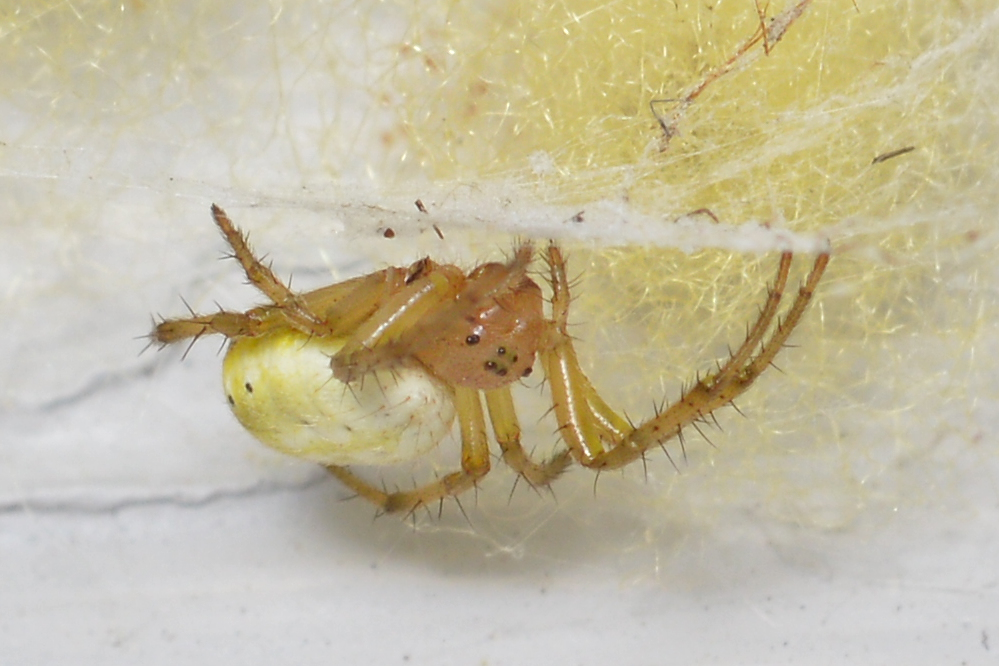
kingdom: Animalia
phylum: Arthropoda
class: Arachnida
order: Araneae
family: Araneidae
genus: Araniella
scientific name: Araniella displicata
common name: Sixspotted orb weaver
